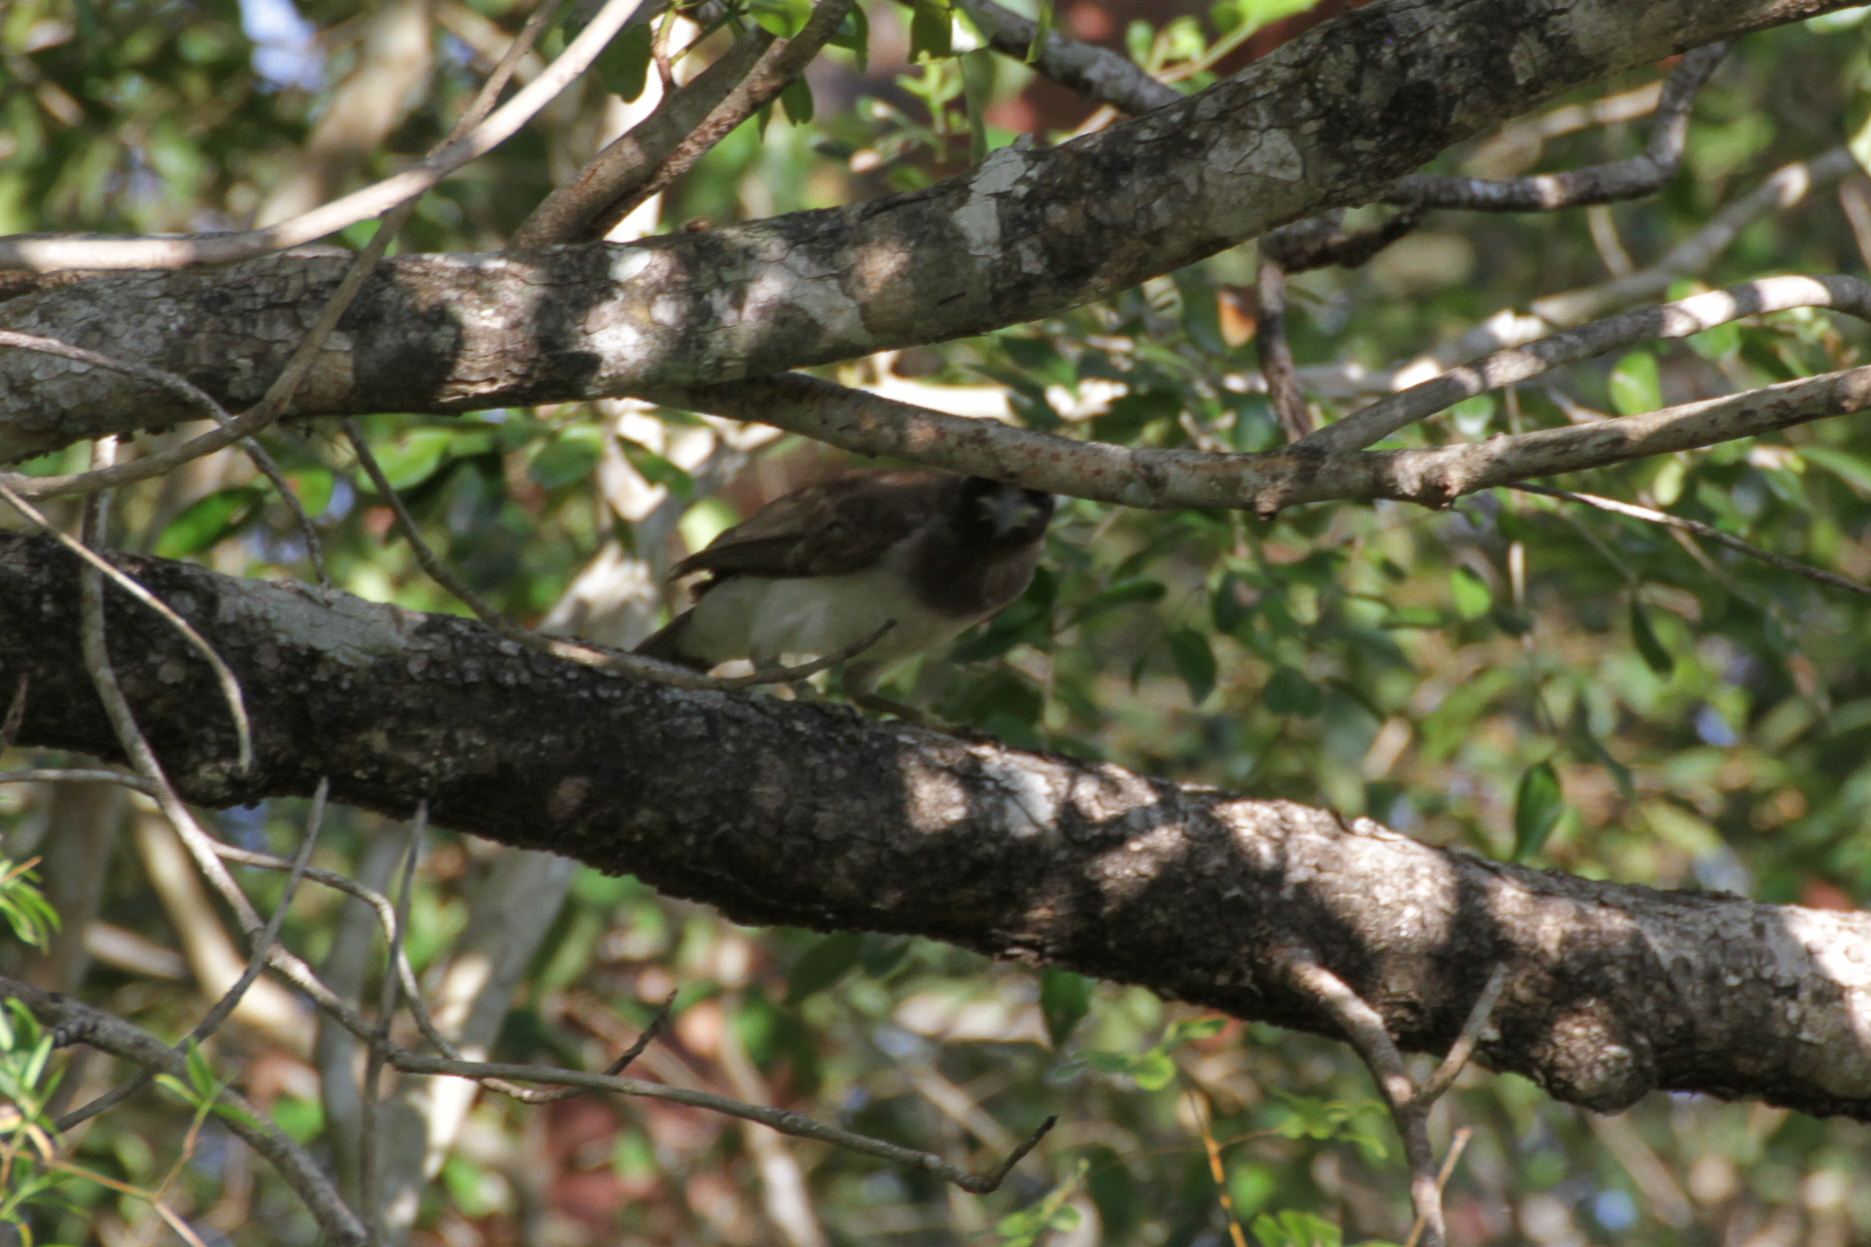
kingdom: Animalia
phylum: Chordata
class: Aves
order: Passeriformes
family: Corvidae
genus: Psilorhinus
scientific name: Psilorhinus morio
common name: Brown jay
